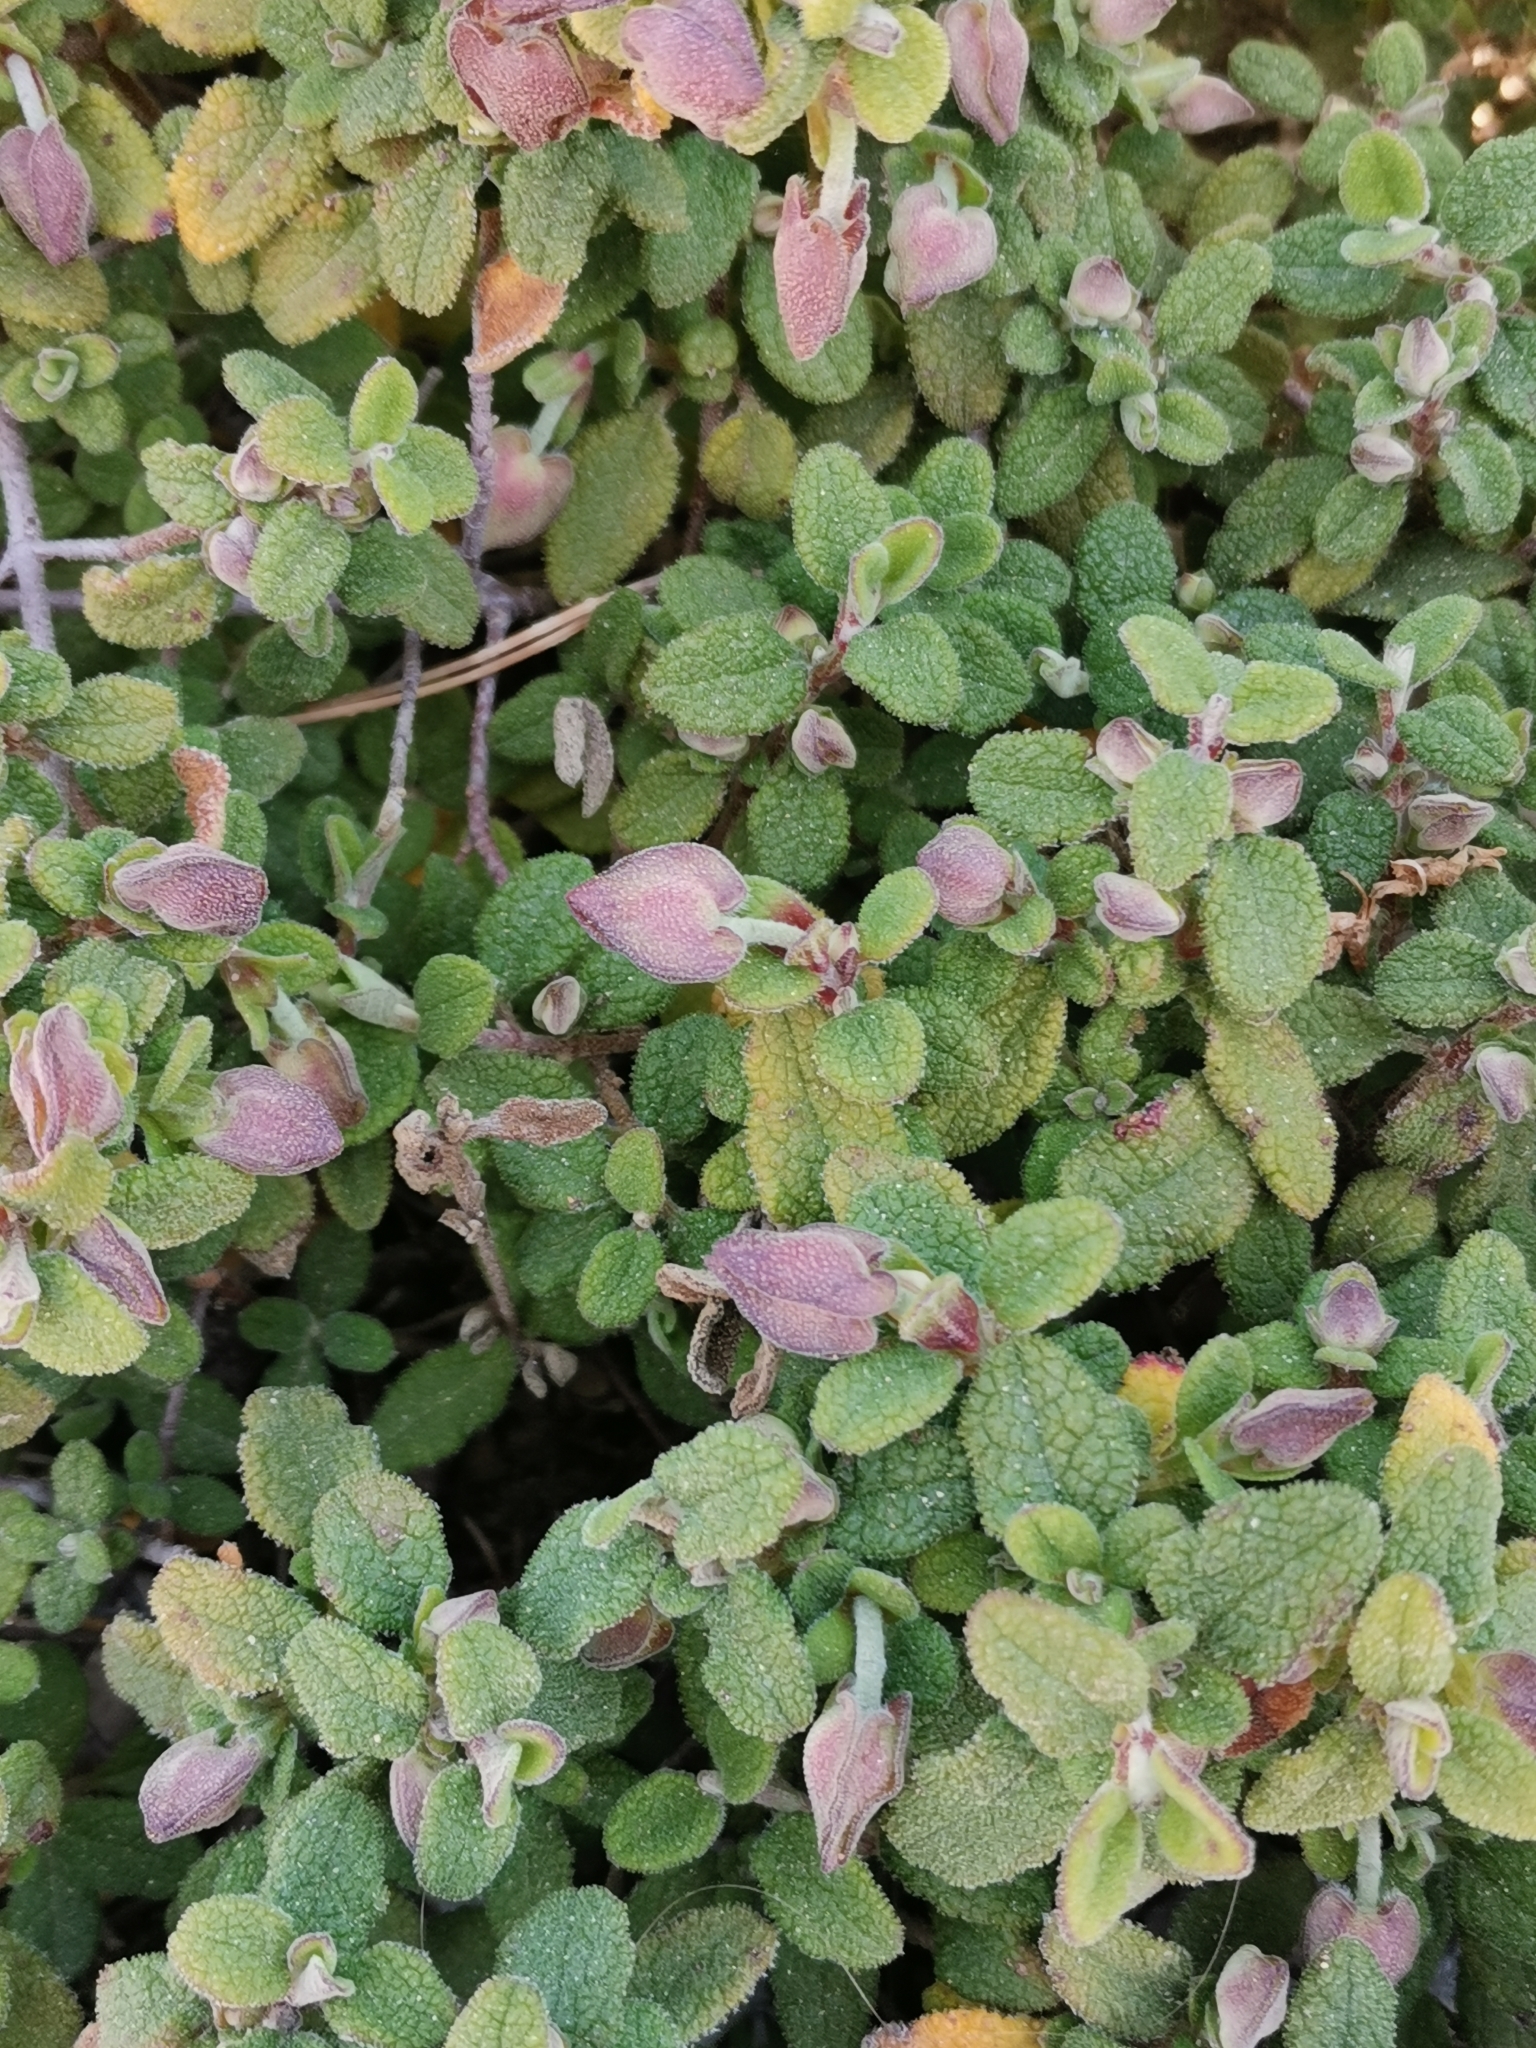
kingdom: Plantae
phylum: Tracheophyta
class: Magnoliopsida
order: Malvales
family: Cistaceae
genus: Cistus
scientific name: Cistus salviifolius
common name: Salvia cistus
